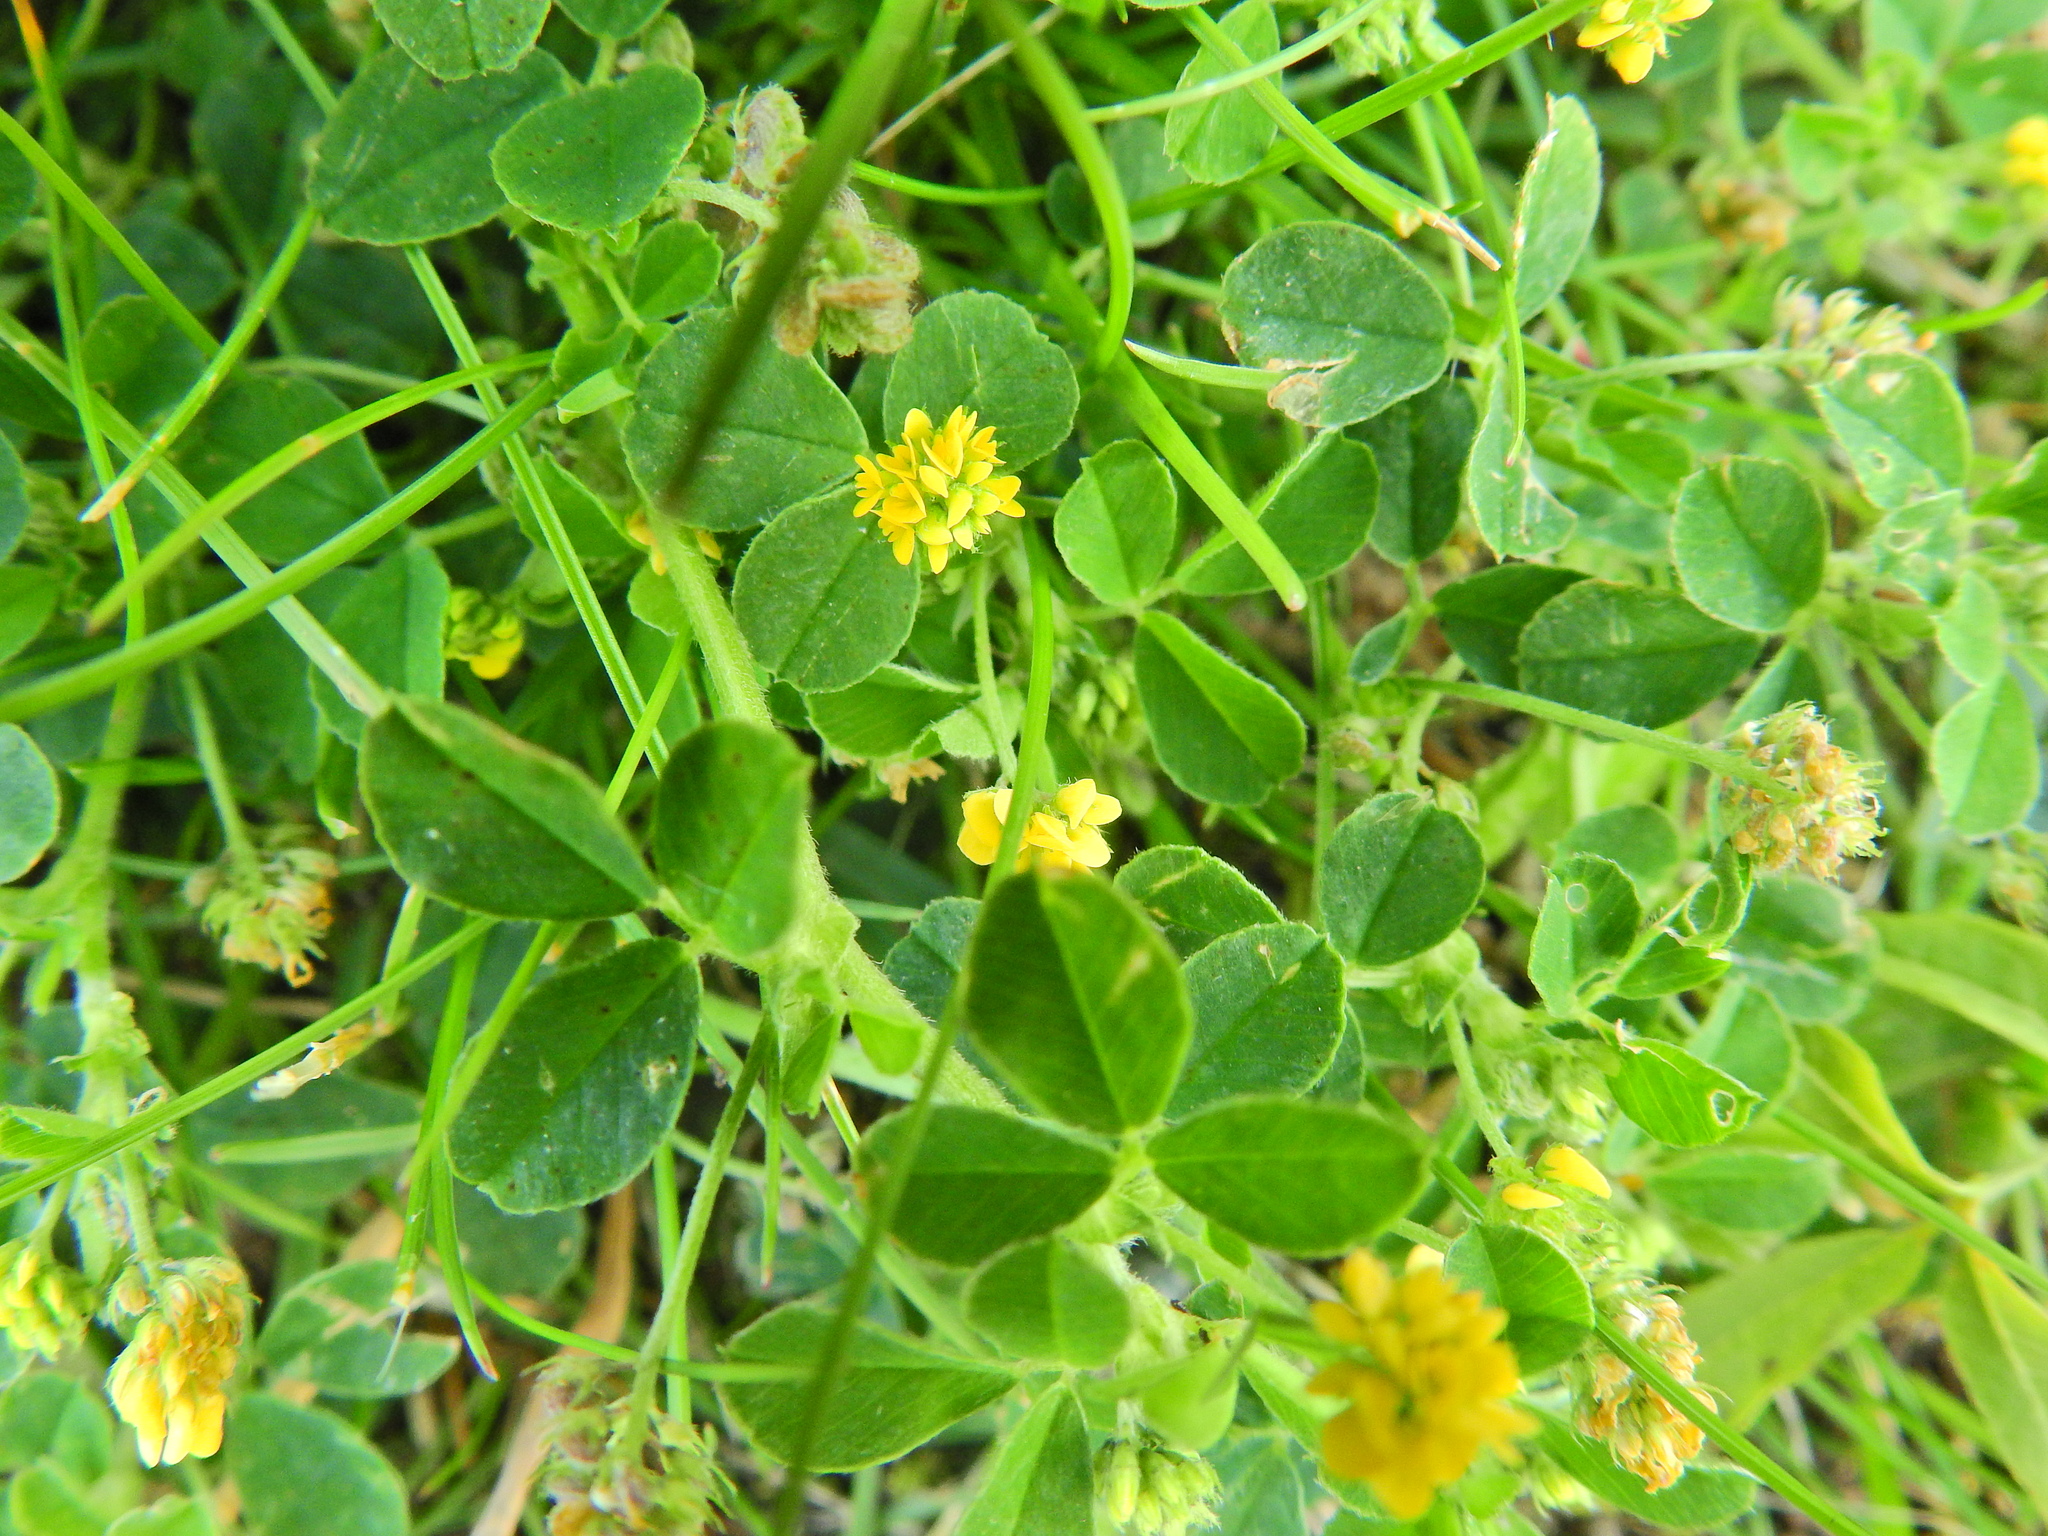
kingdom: Plantae
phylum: Tracheophyta
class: Magnoliopsida
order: Fabales
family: Fabaceae
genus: Medicago
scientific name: Medicago lupulina
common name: Black medick
